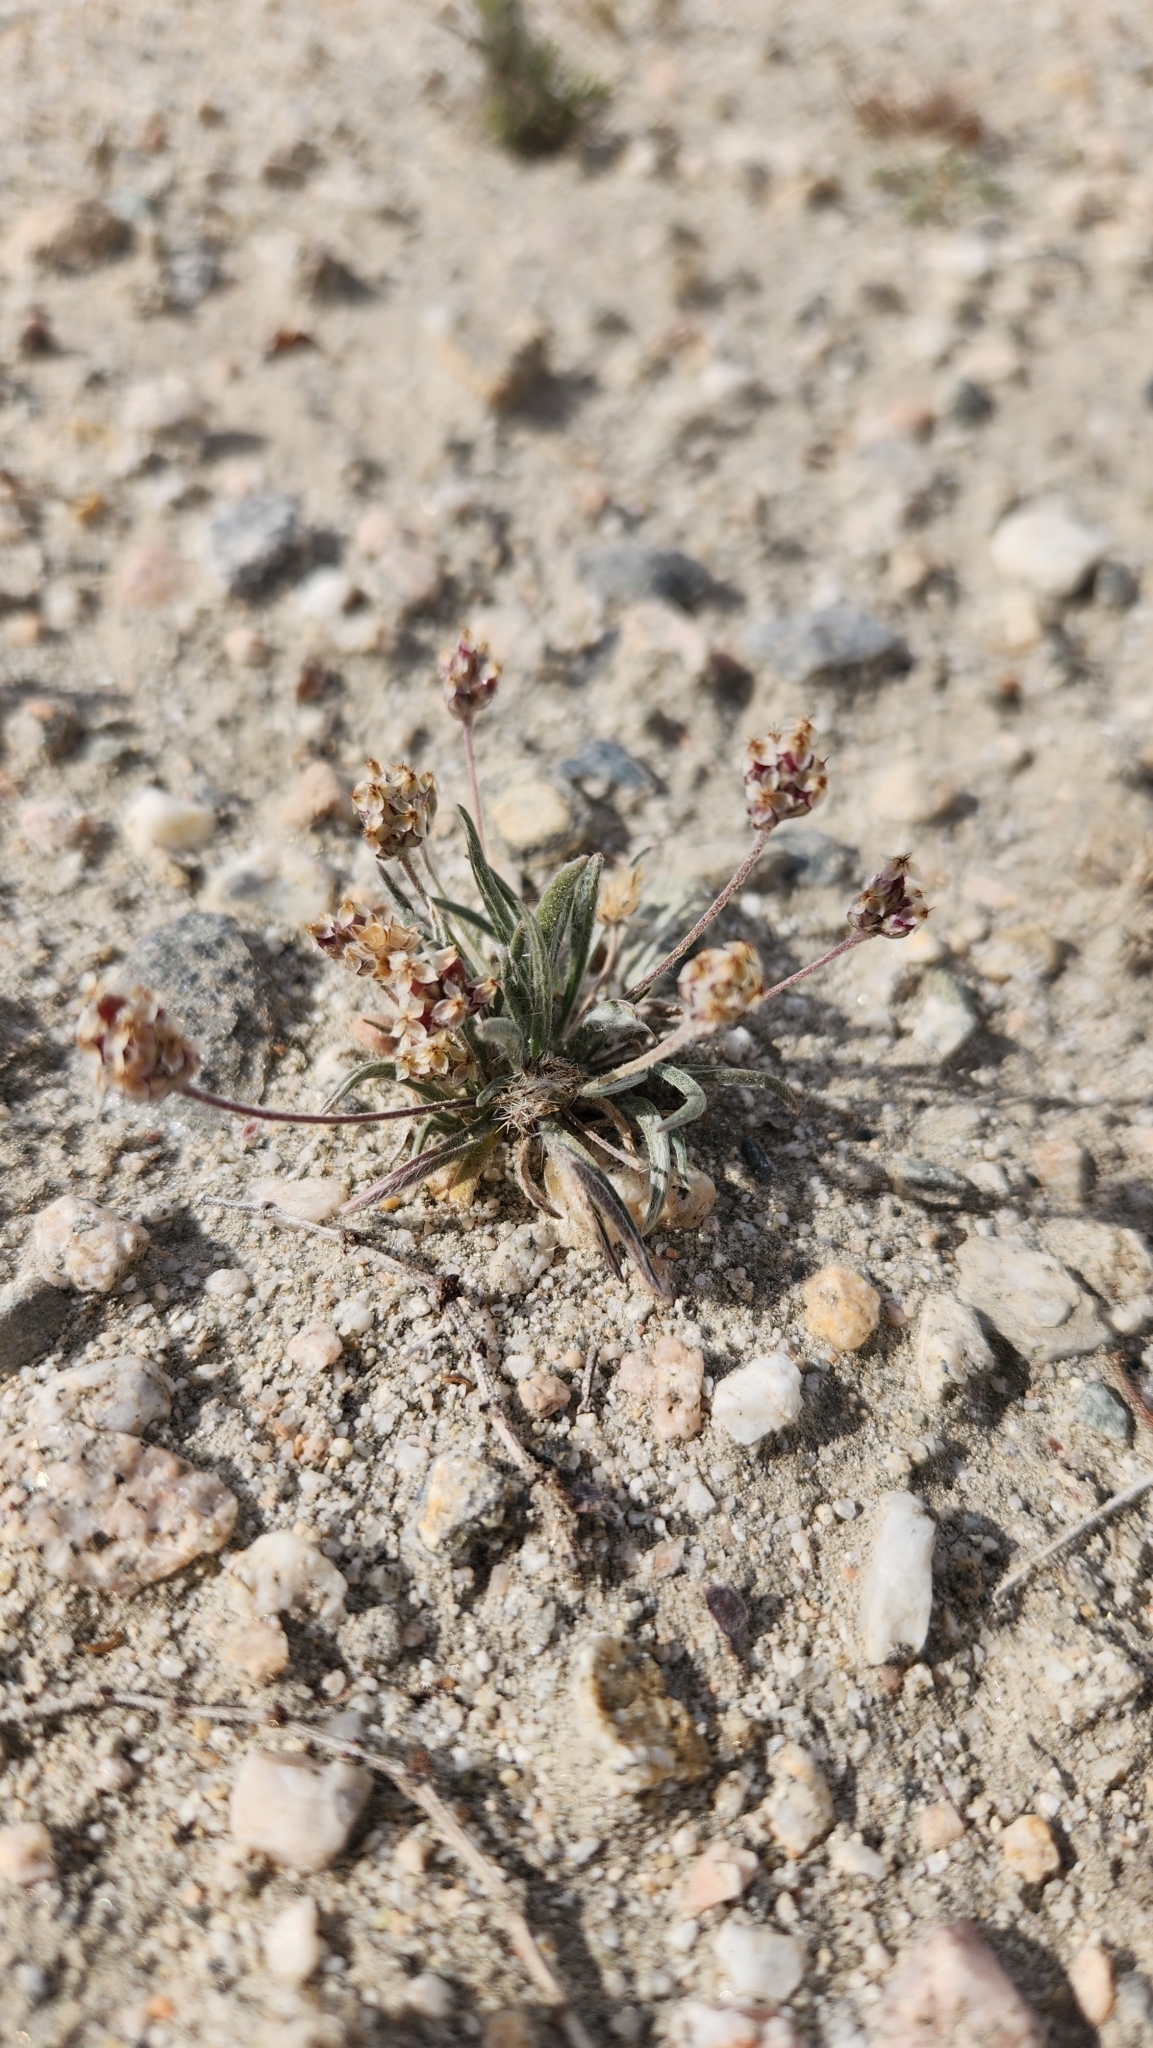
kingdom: Plantae
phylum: Tracheophyta
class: Magnoliopsida
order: Lamiales
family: Plantaginaceae
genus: Plantago
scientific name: Plantago ovata
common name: Blond plantain
